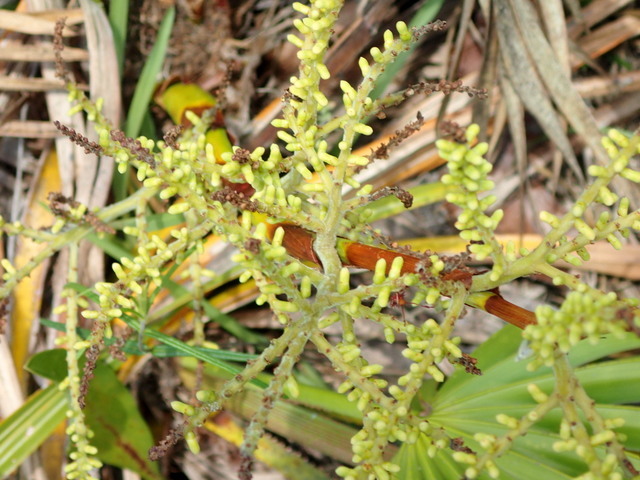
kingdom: Plantae
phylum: Tracheophyta
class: Liliopsida
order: Arecales
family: Arecaceae
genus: Sabal
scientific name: Sabal minor
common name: Dwarf palmetto
